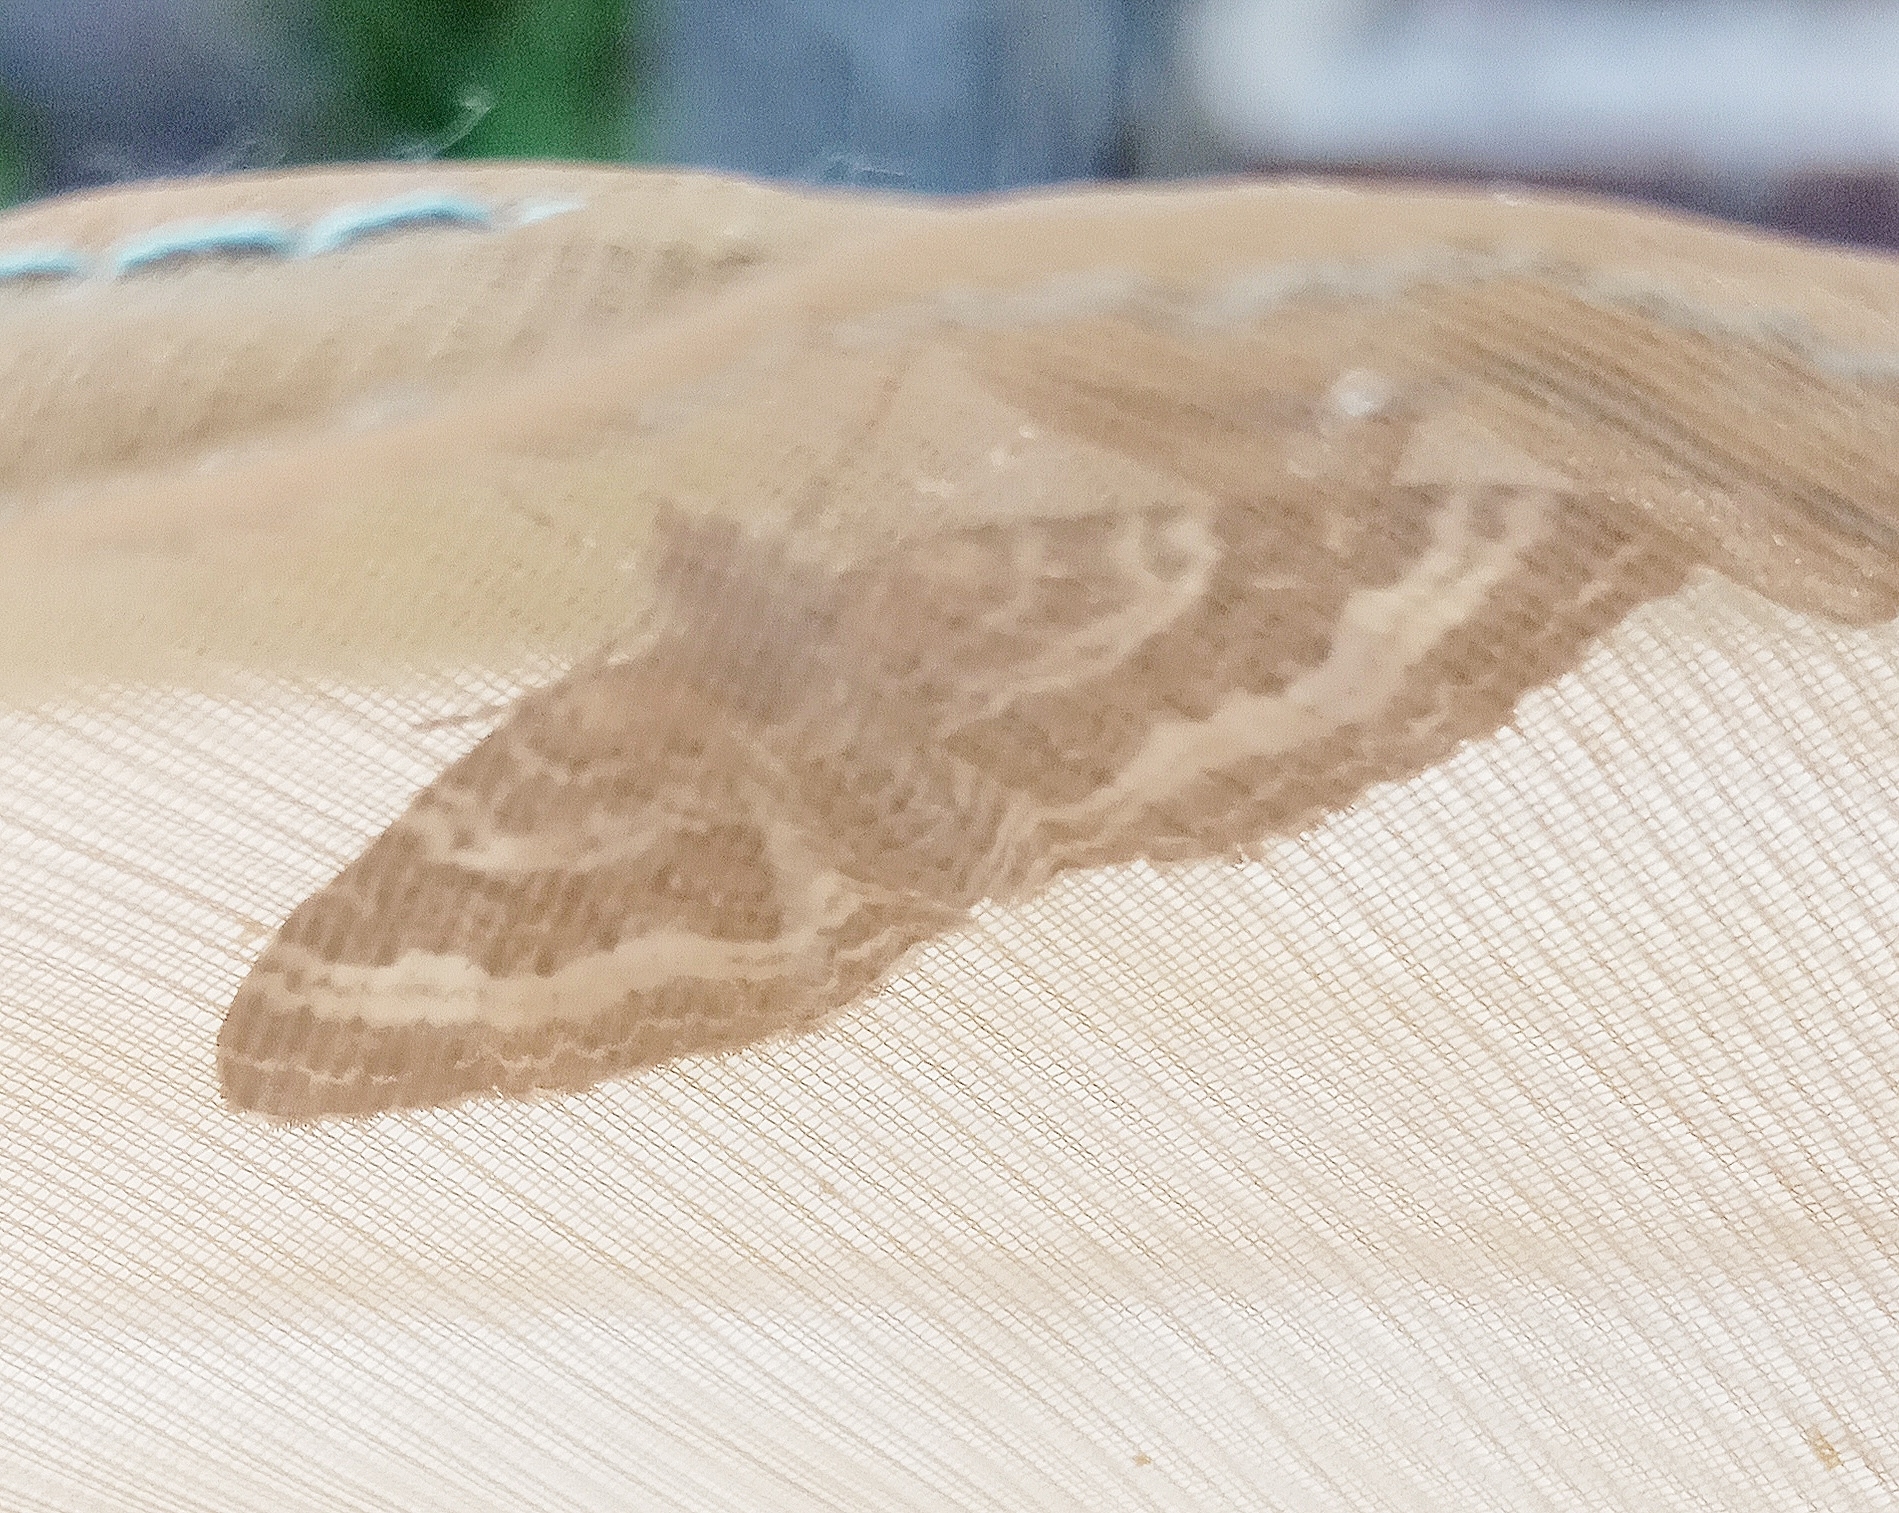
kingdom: Animalia
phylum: Arthropoda
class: Insecta
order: Lepidoptera
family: Geometridae
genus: Epirrhoe
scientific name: Epirrhoe alternata
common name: Common carpet
